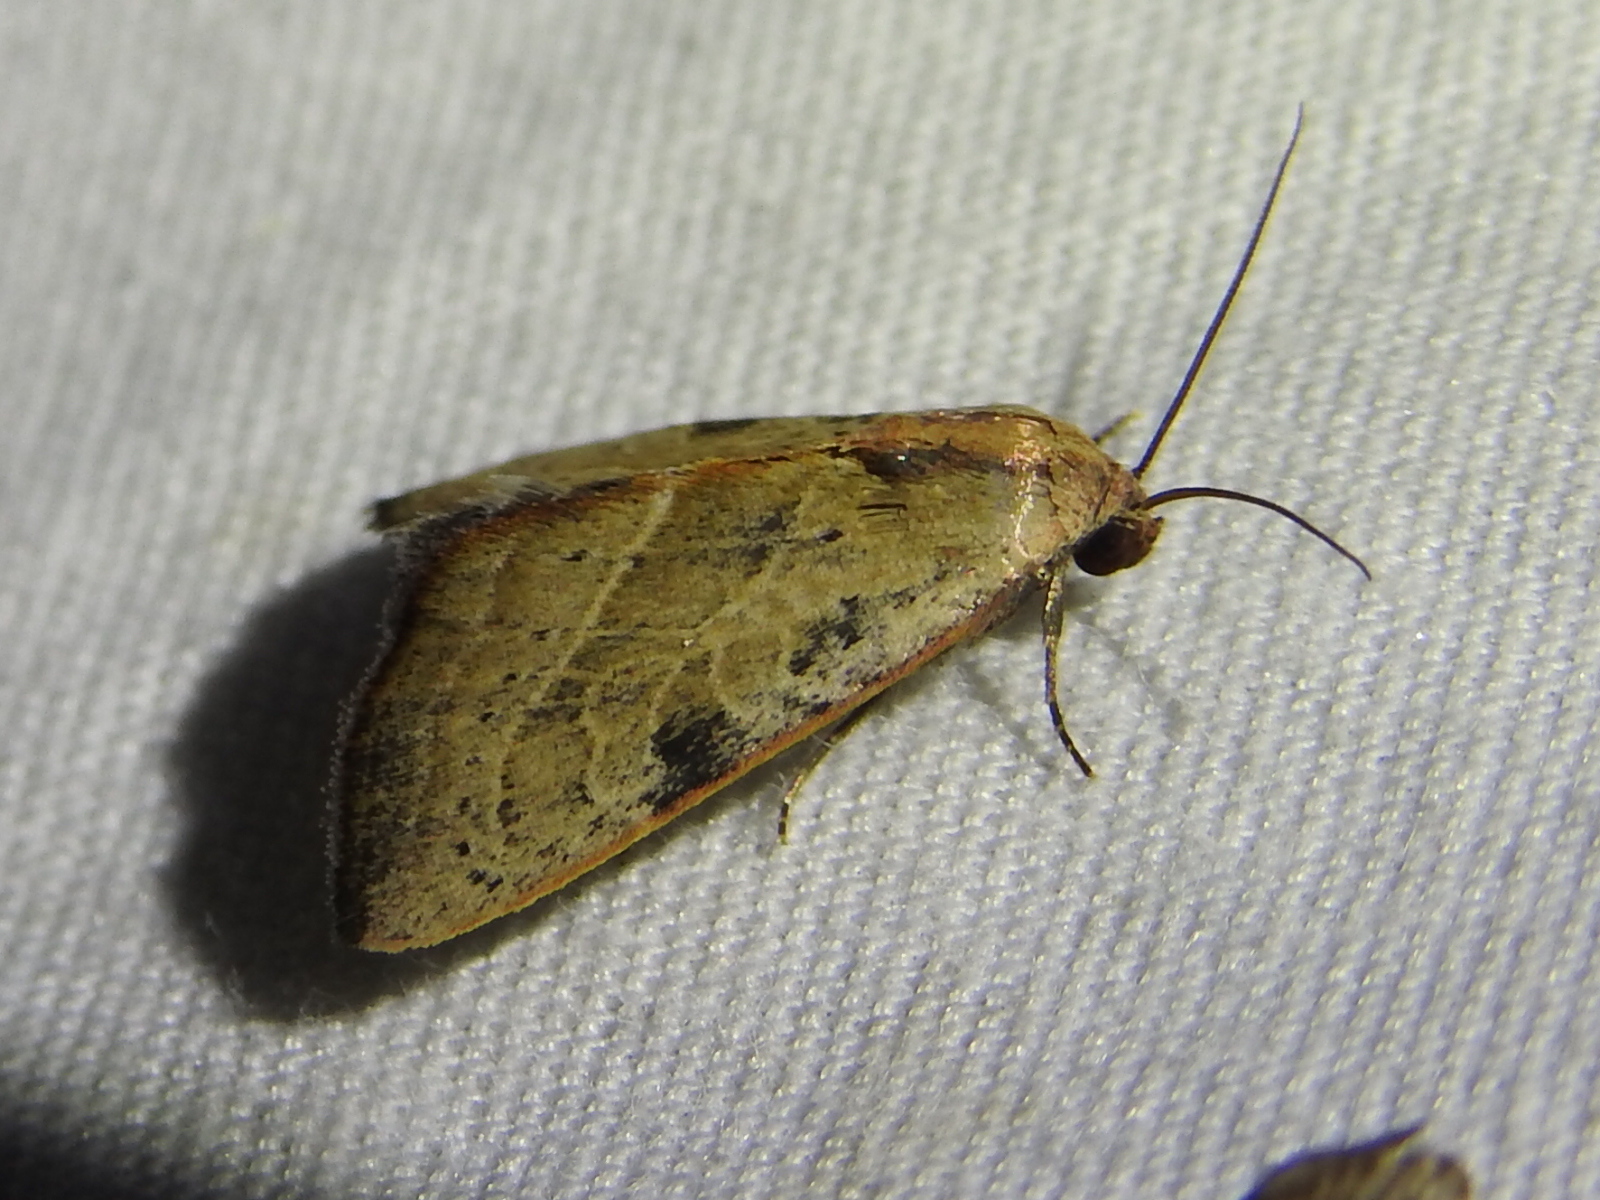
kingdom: Animalia
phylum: Arthropoda
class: Insecta
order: Lepidoptera
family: Noctuidae
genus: Galgula
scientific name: Galgula partita
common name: Wedgeling
